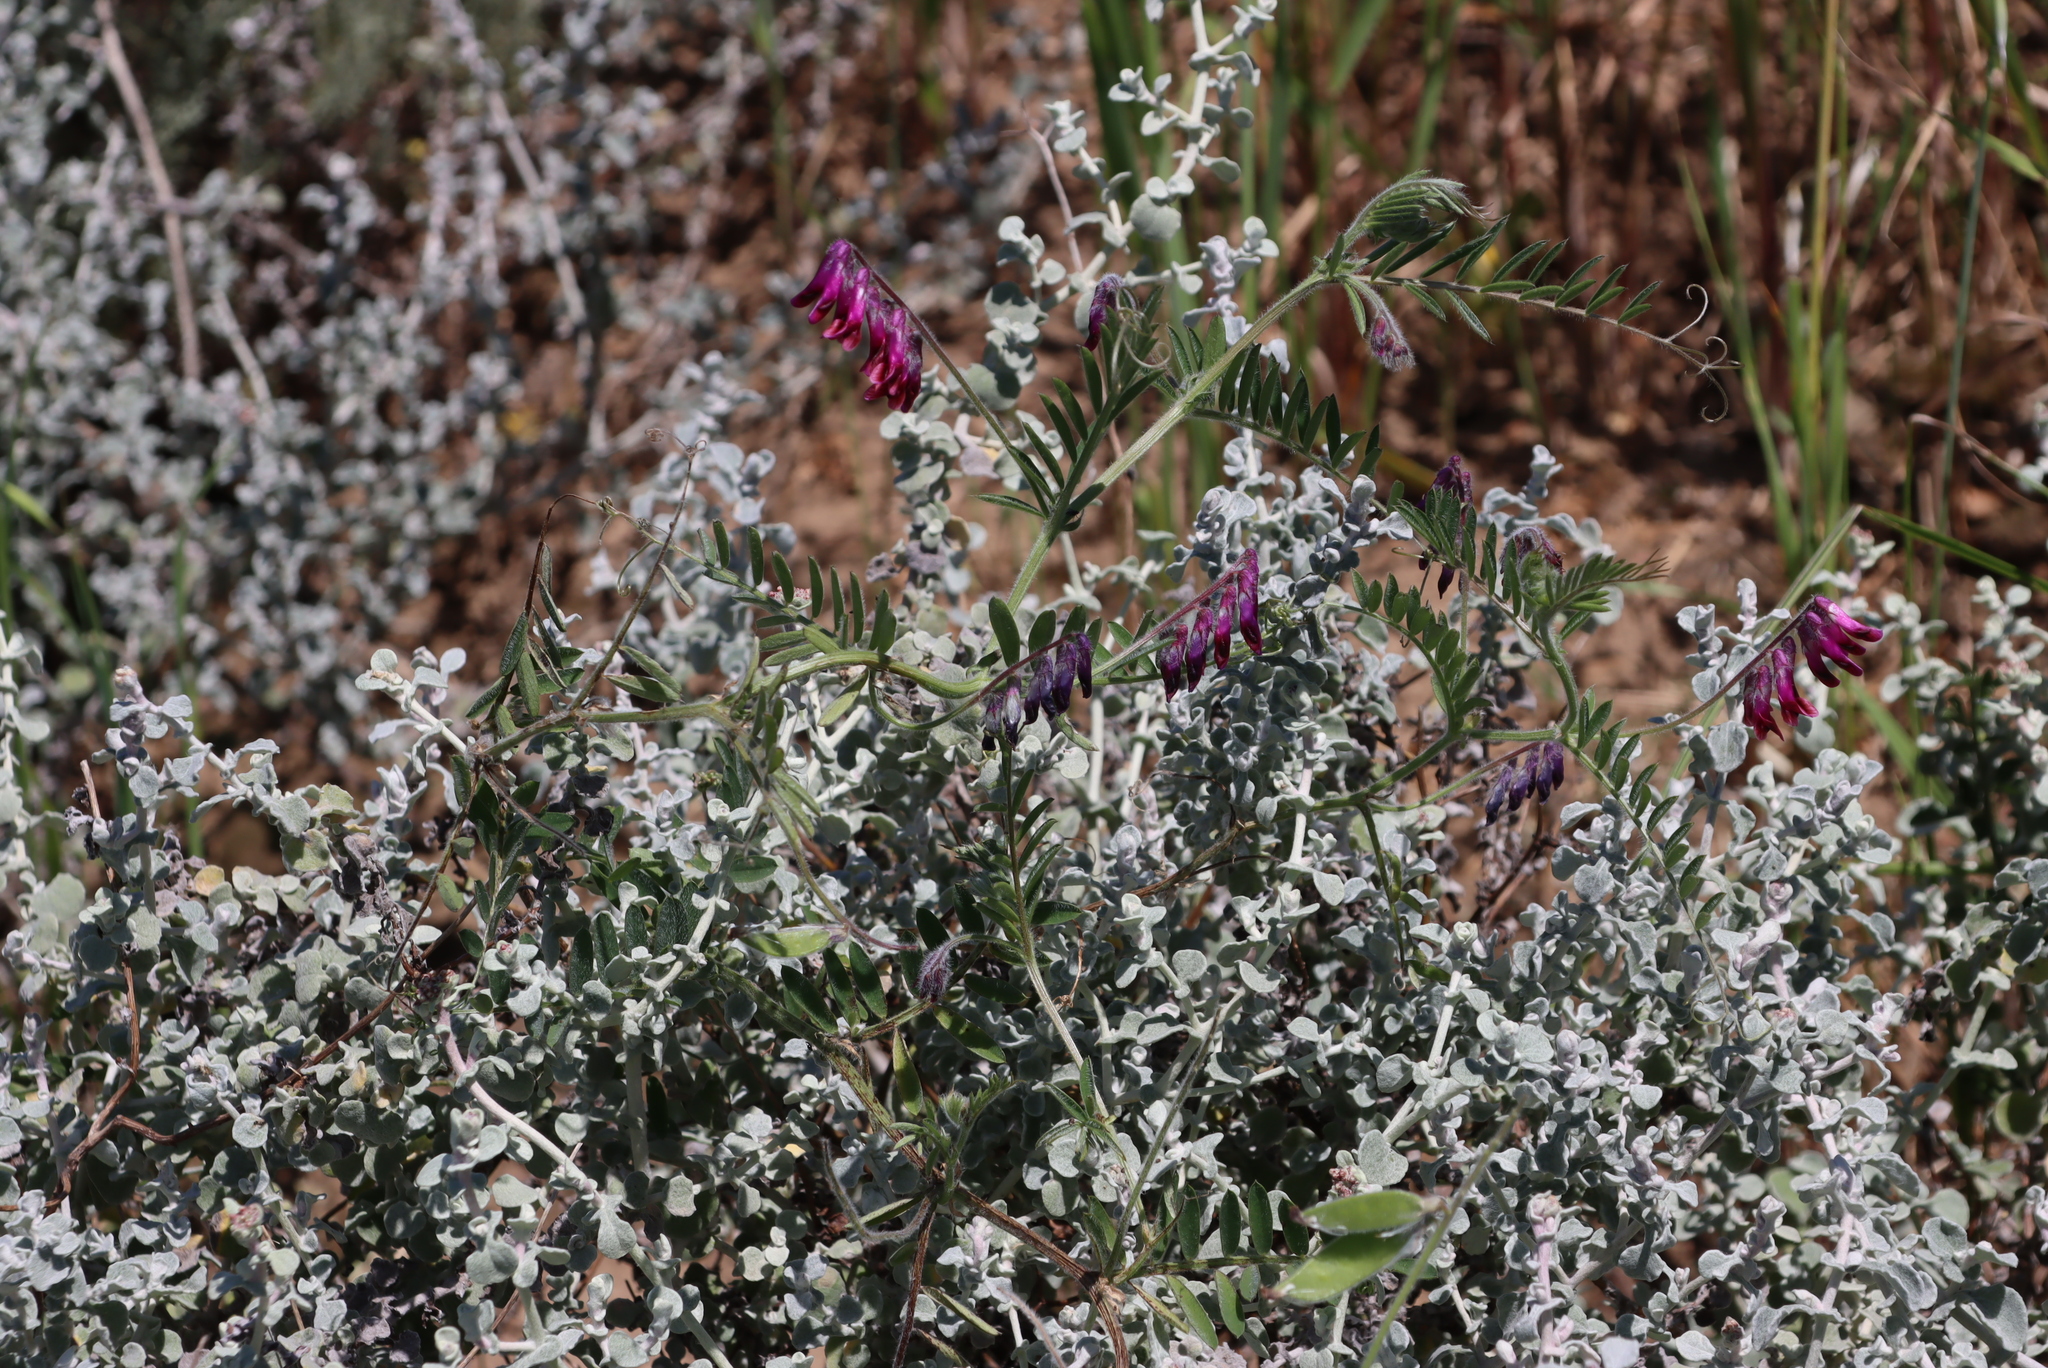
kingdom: Plantae
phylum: Tracheophyta
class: Magnoliopsida
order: Fabales
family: Fabaceae
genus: Vicia
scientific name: Vicia benghalensis
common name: Purple vetch
